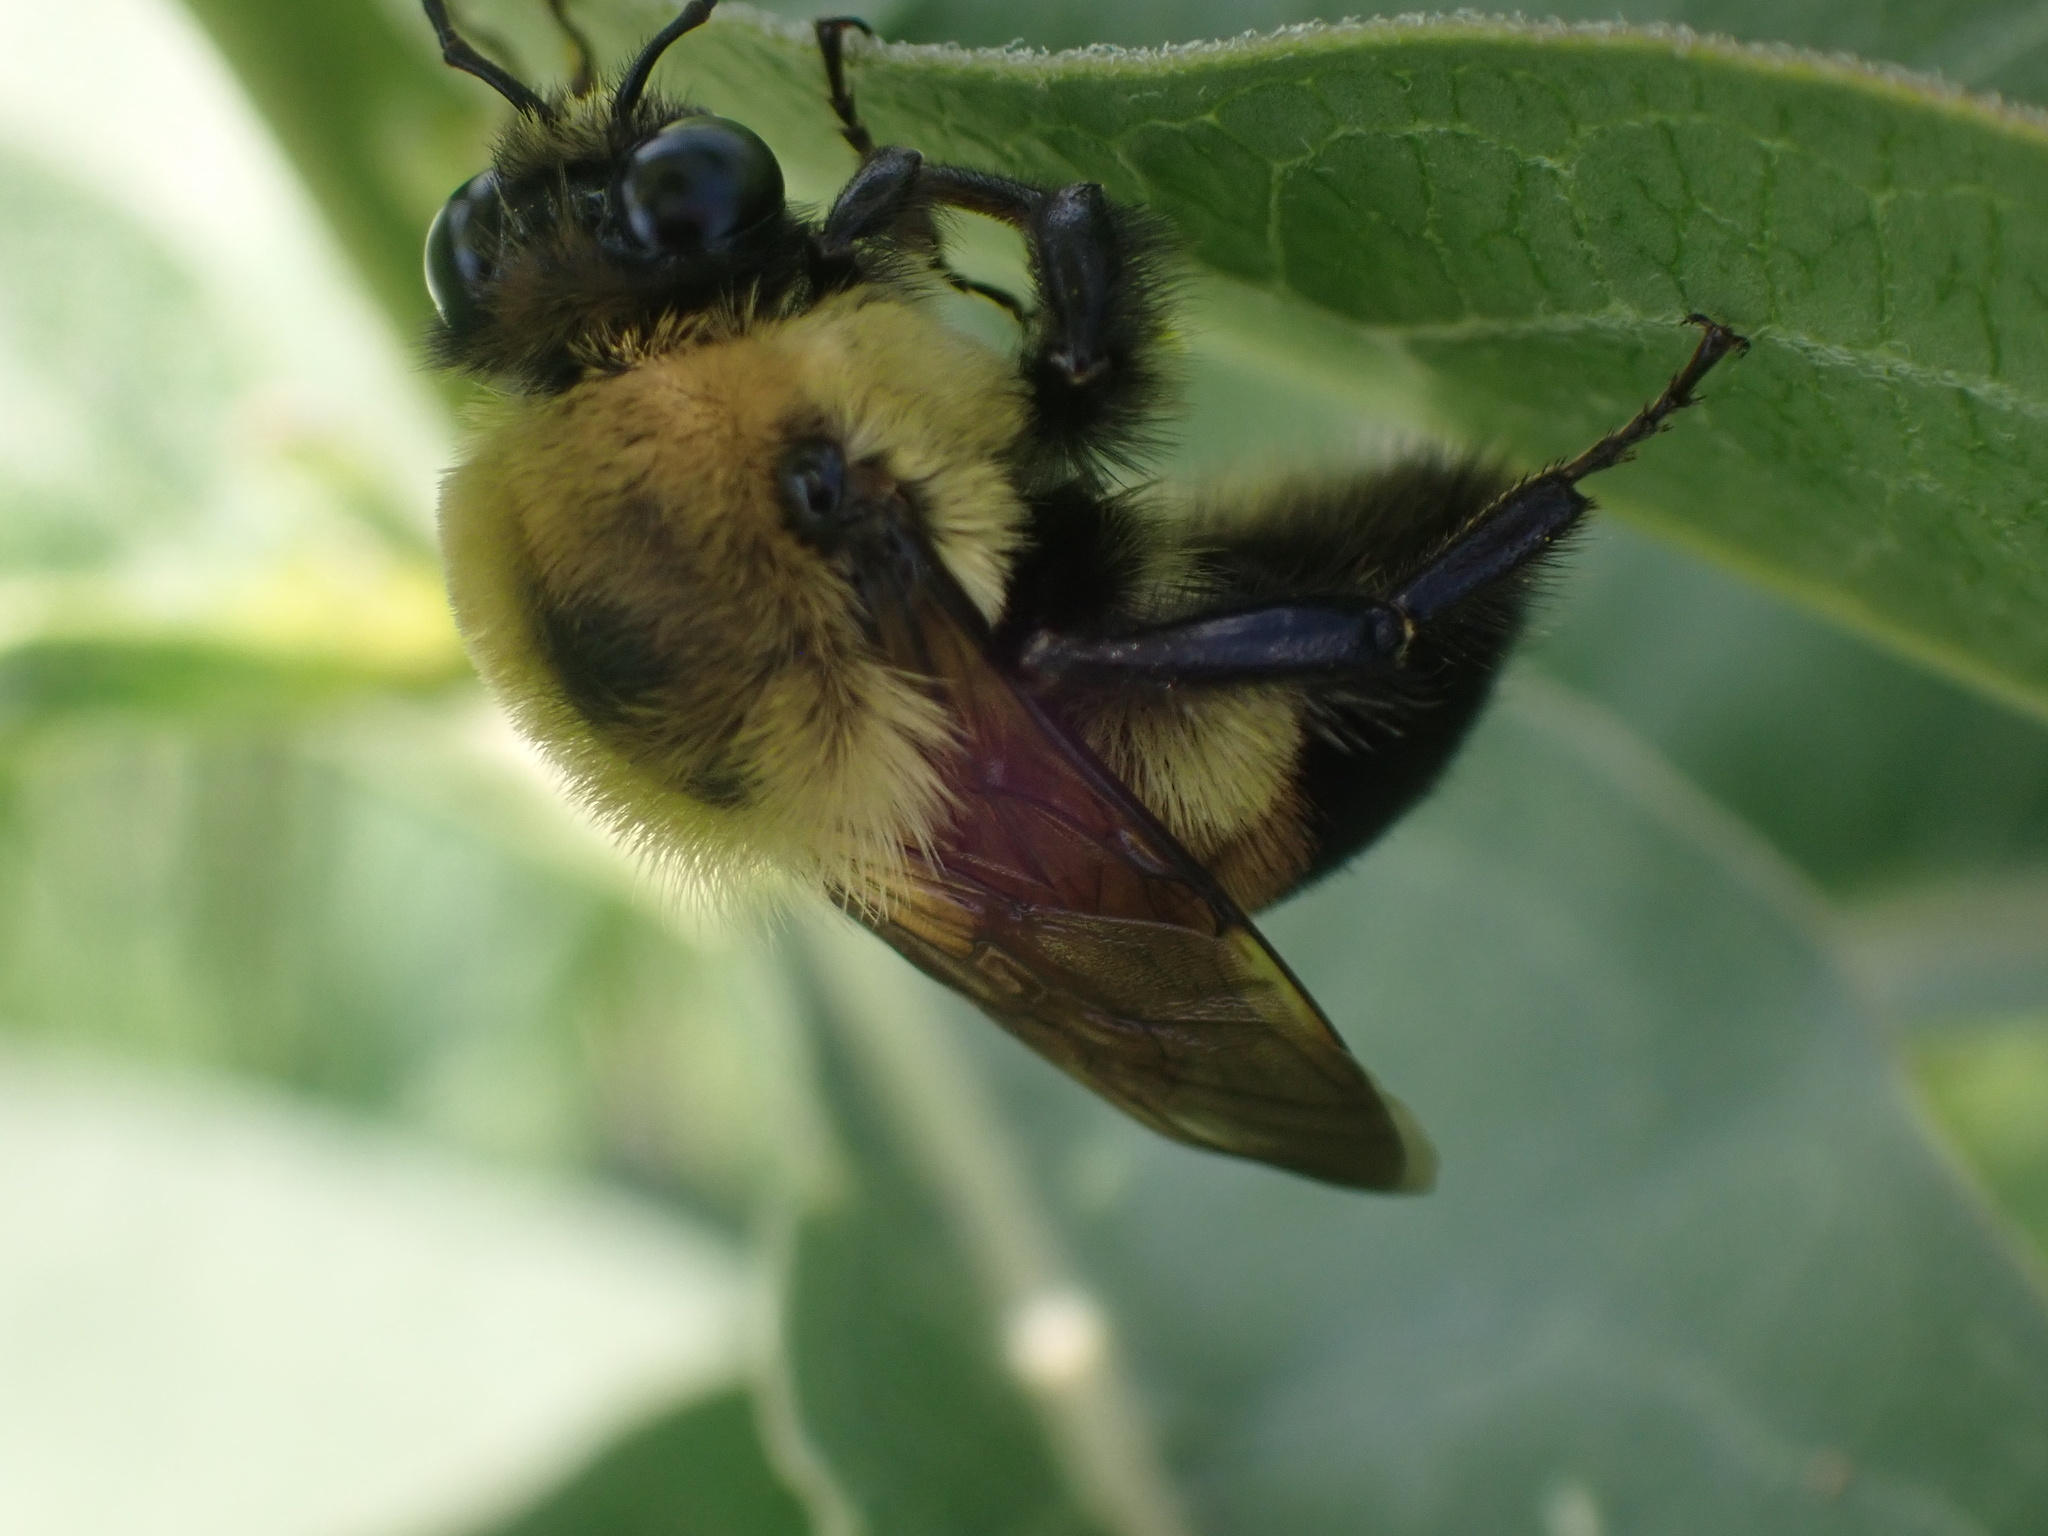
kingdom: Animalia
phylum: Arthropoda
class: Insecta
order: Hymenoptera
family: Apidae
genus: Bombus
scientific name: Bombus griseocollis
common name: Brown-belted bumble bee
